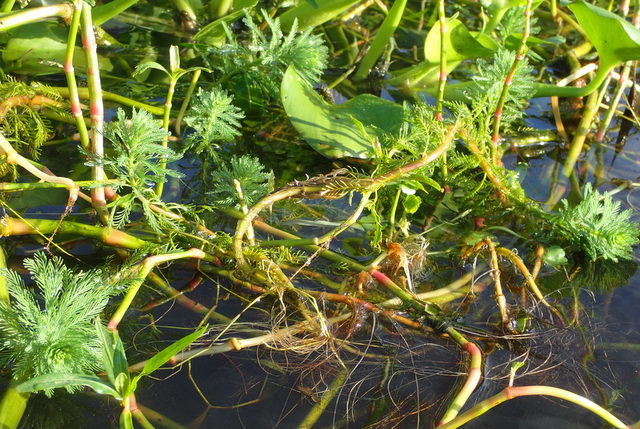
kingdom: Plantae
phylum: Tracheophyta
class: Magnoliopsida
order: Saxifragales
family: Haloragaceae
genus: Myriophyllum
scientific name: Myriophyllum aquaticum
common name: Parrot's feather
